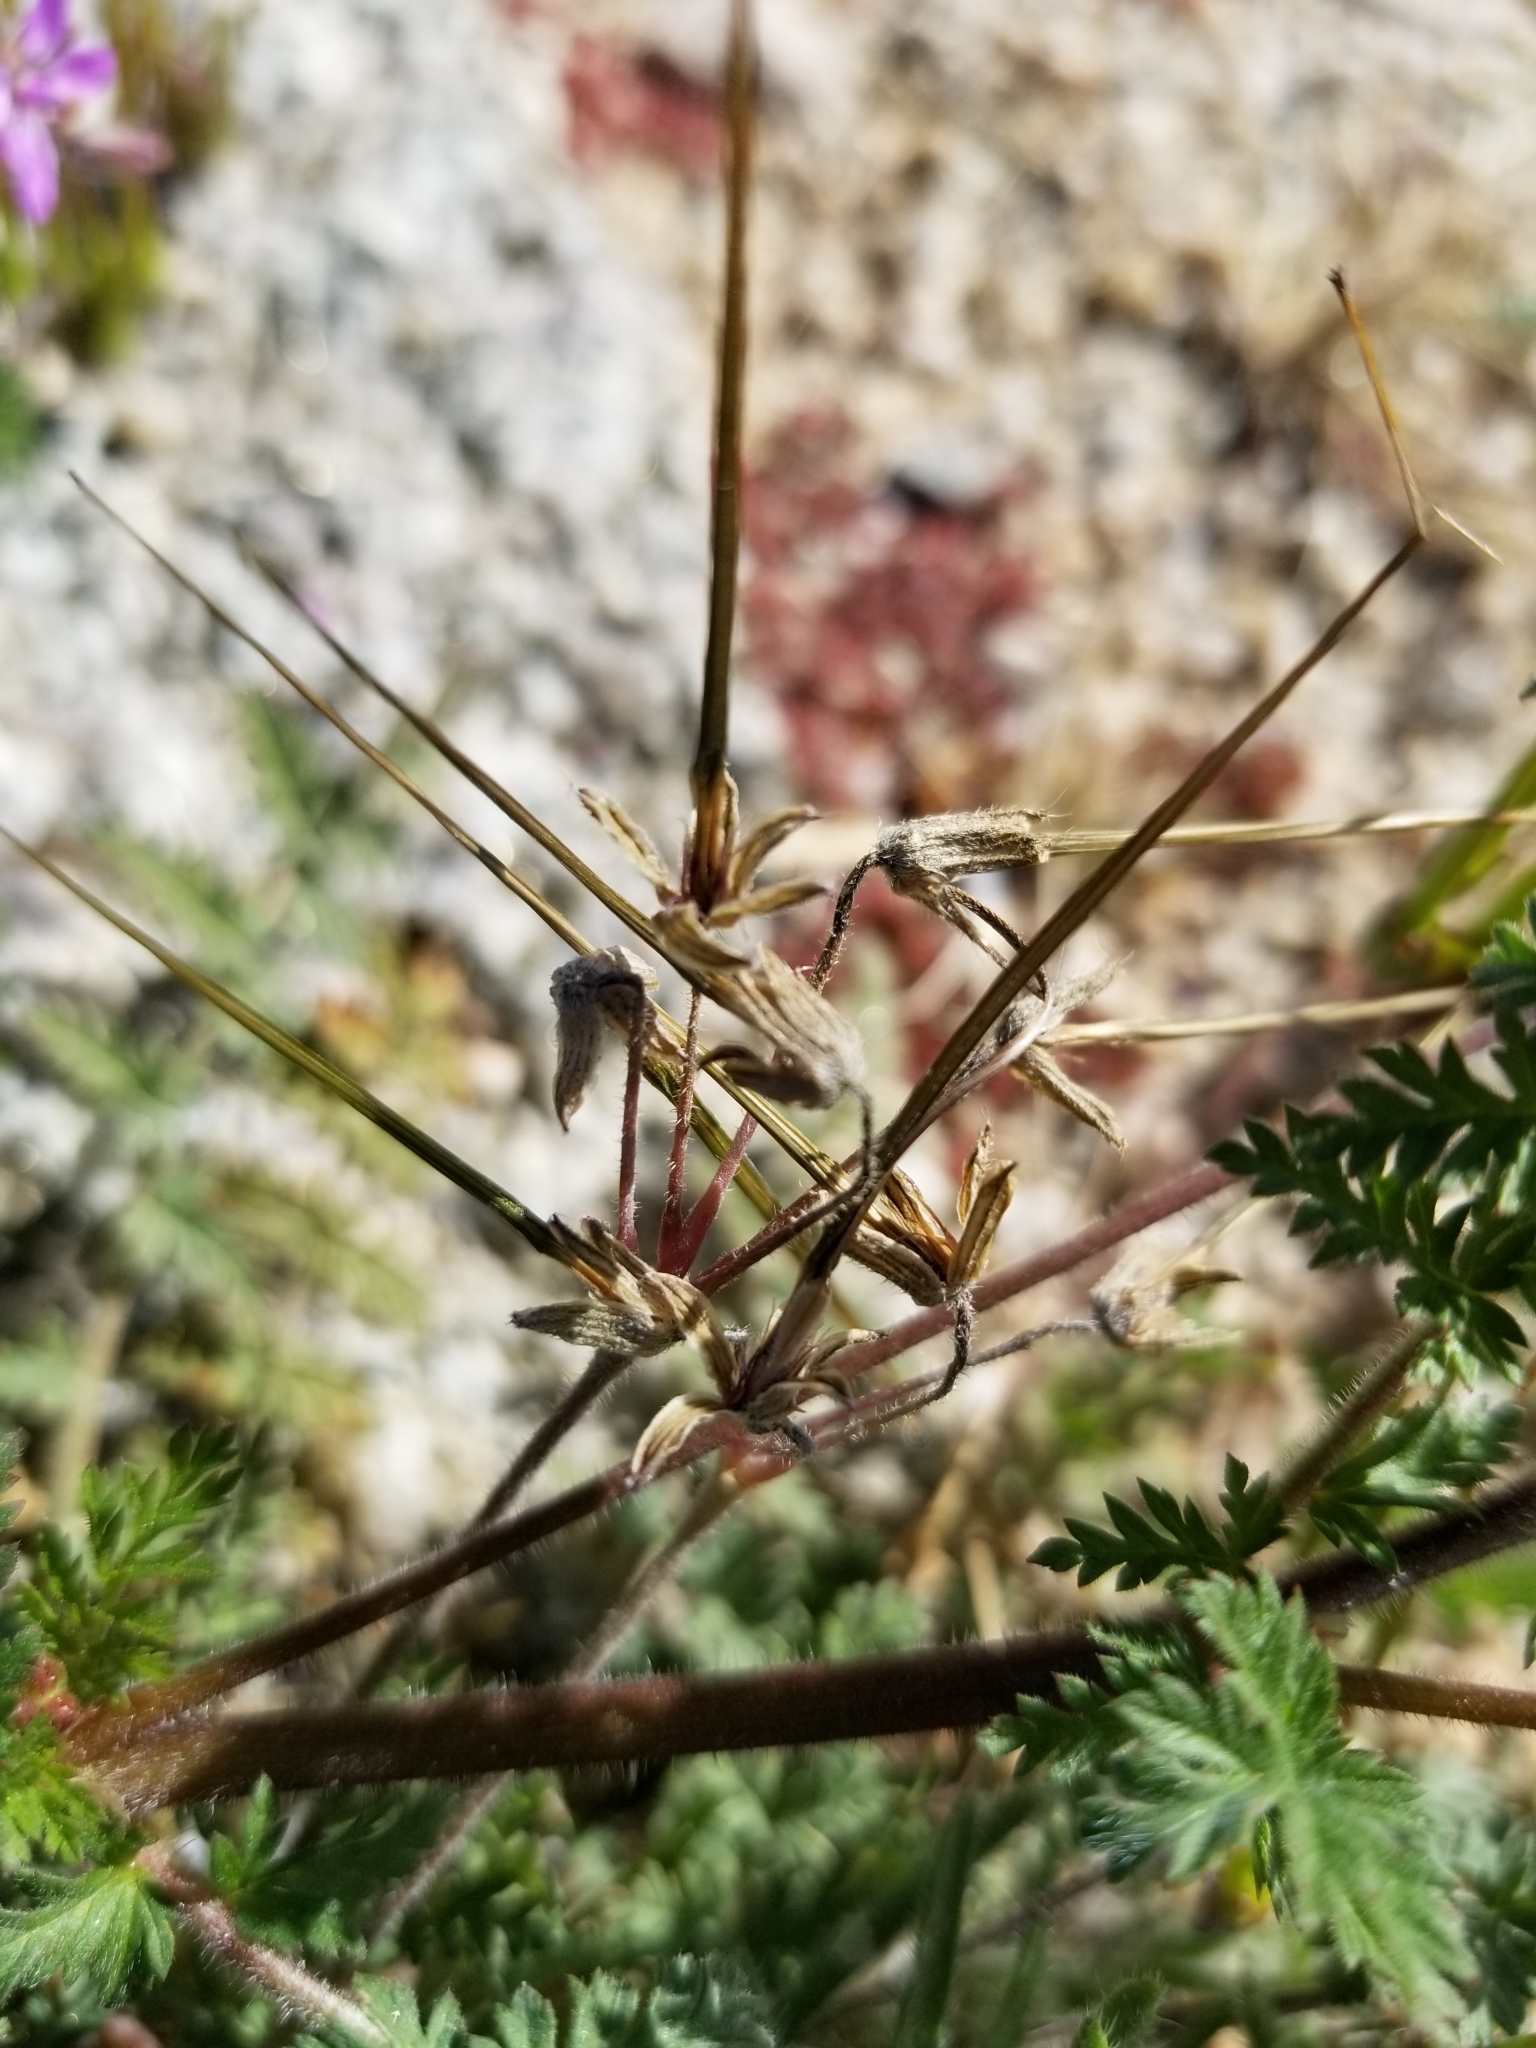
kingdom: Plantae
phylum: Tracheophyta
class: Magnoliopsida
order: Geraniales
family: Geraniaceae
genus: Erodium
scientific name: Erodium cicutarium
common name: Common stork's-bill
